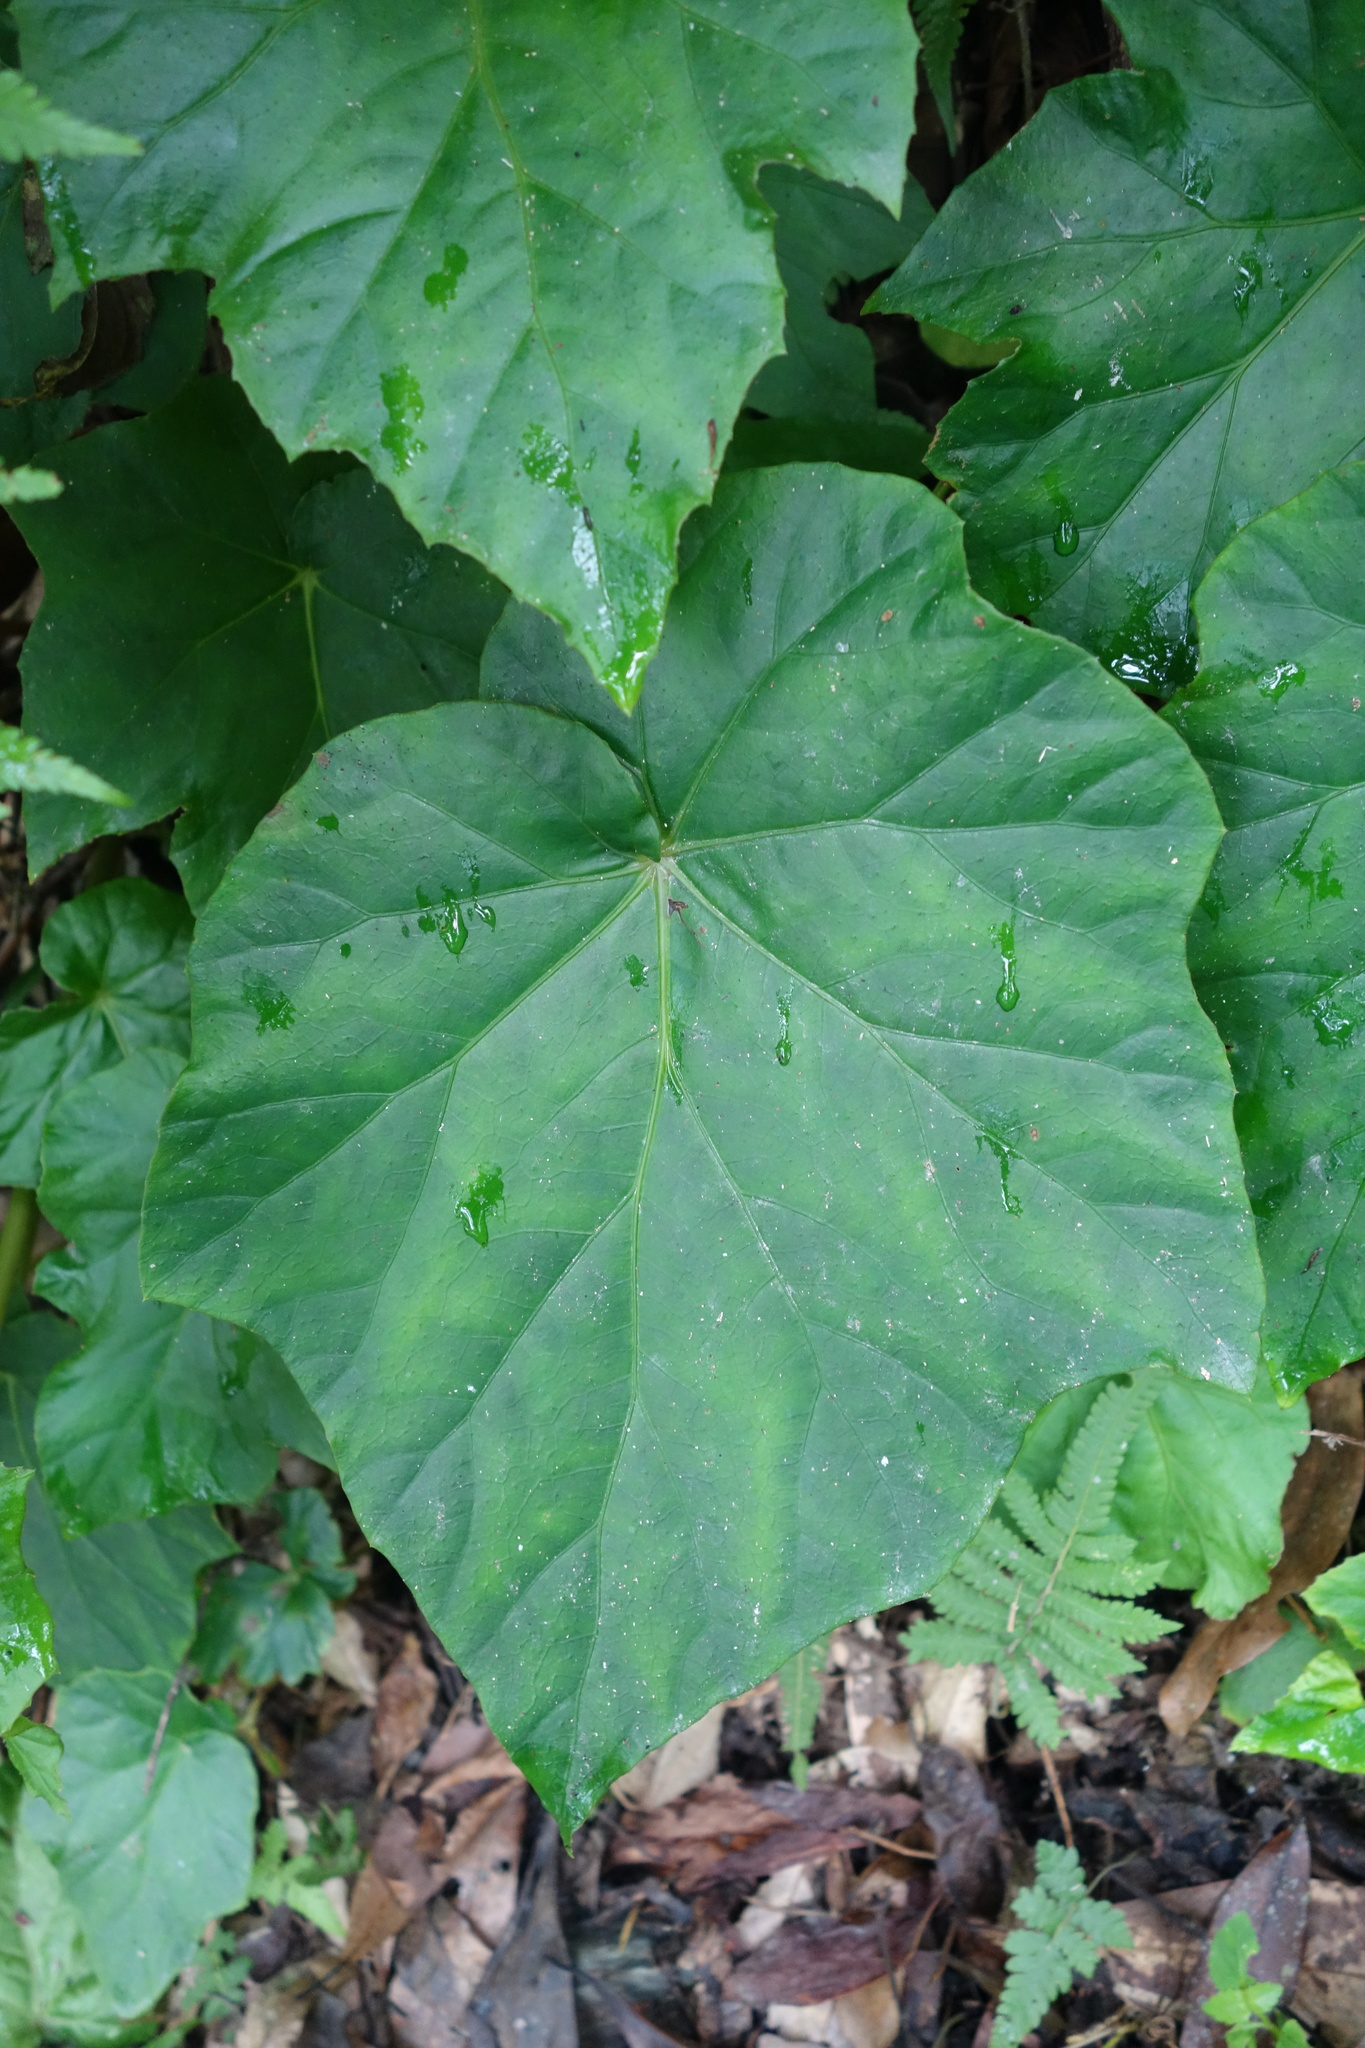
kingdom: Plantae
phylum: Tracheophyta
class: Magnoliopsida
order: Cucurbitales
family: Begoniaceae
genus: Begonia
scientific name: Begonia formosana
